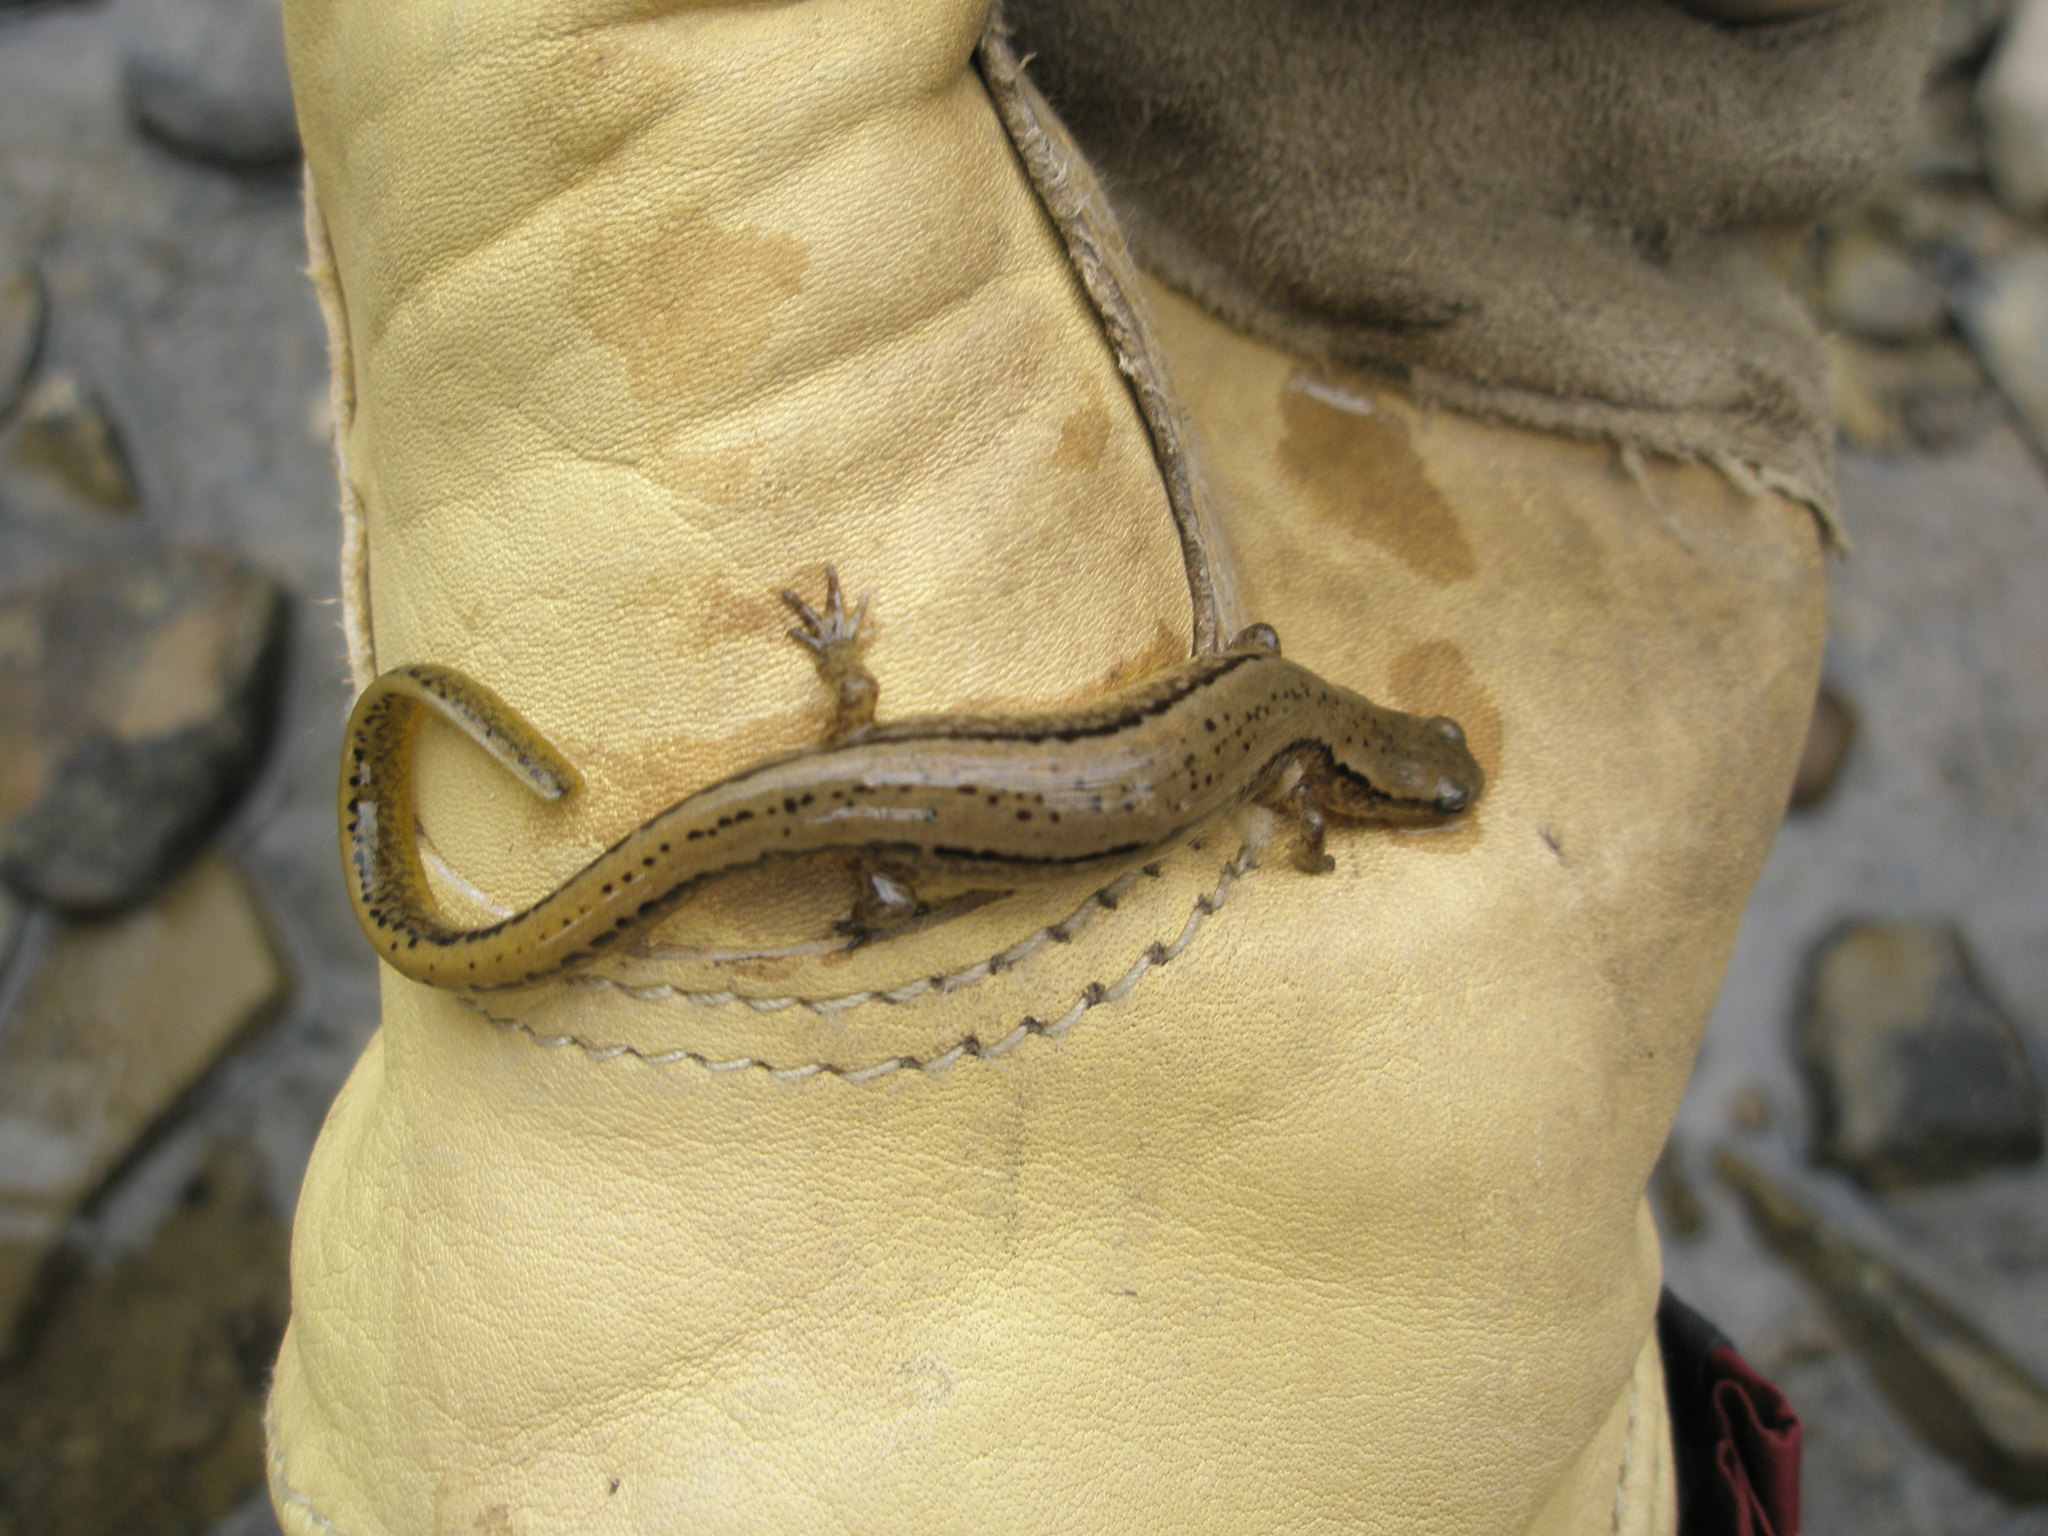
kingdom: Animalia
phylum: Chordata
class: Amphibia
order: Caudata
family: Plethodontidae
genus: Eurycea
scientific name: Eurycea bislineata
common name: Northern two-lined salamander
